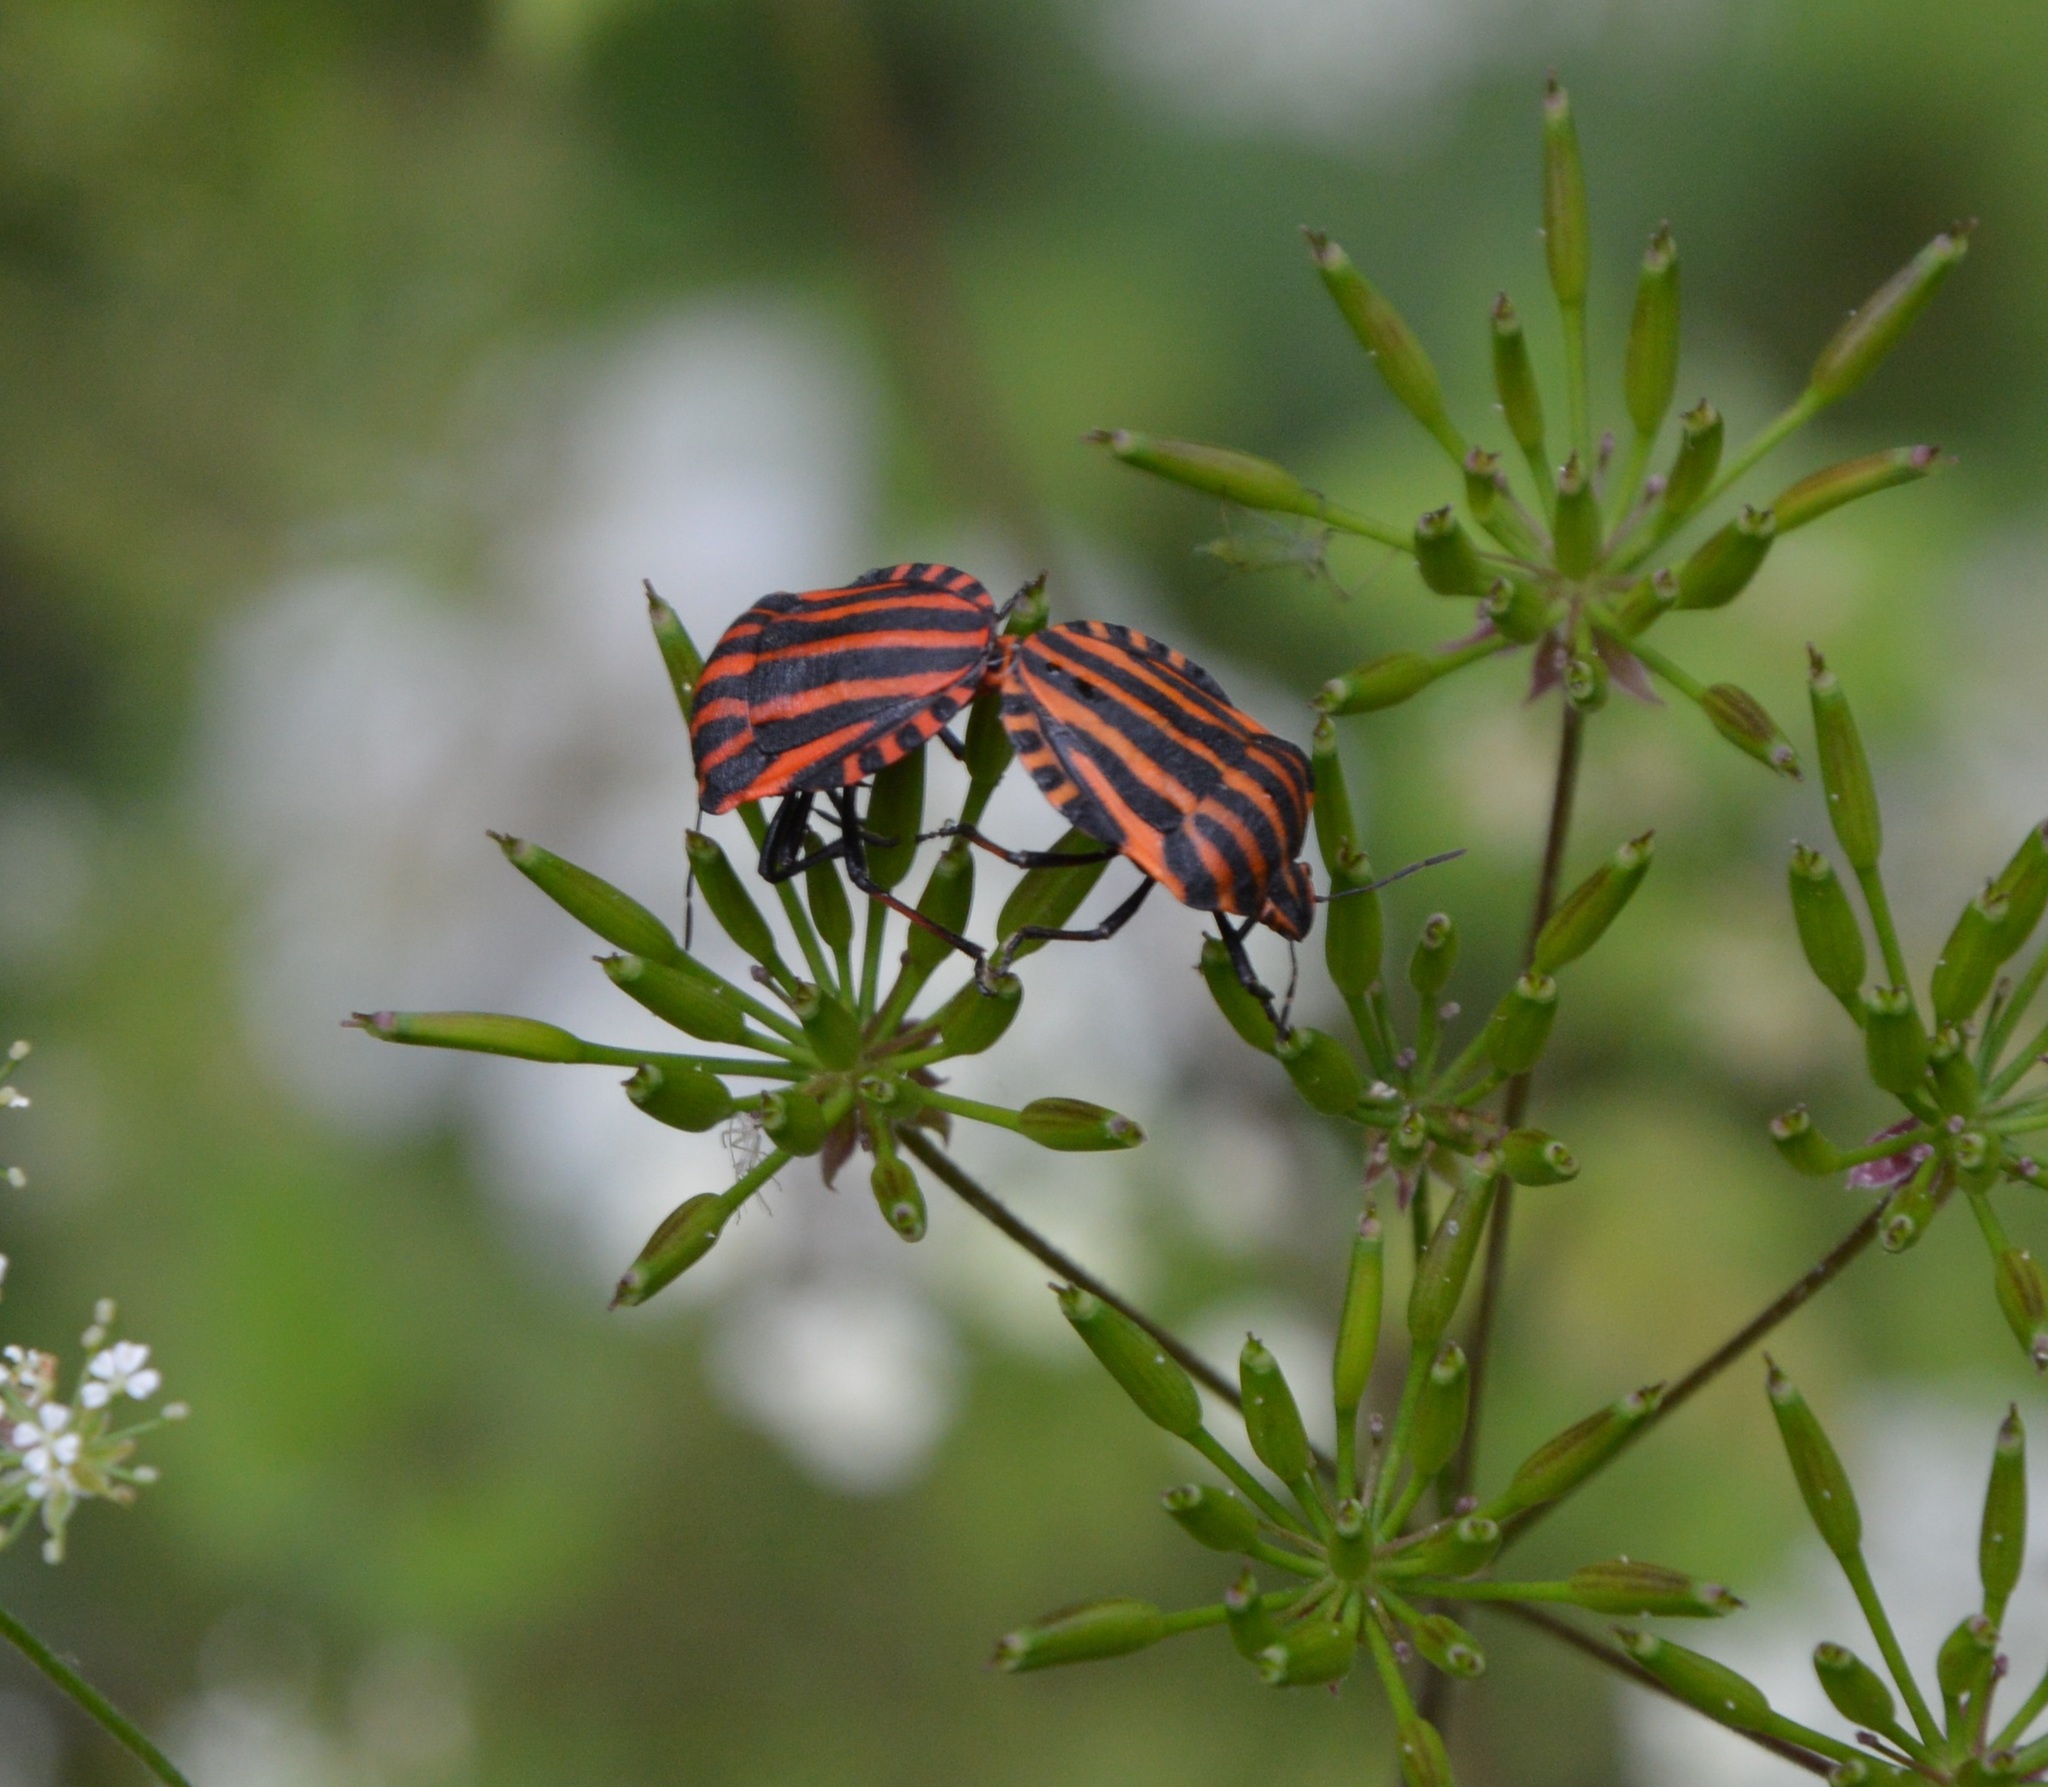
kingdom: Animalia
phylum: Arthropoda
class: Insecta
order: Hemiptera
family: Pentatomidae
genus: Graphosoma
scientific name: Graphosoma italicum
